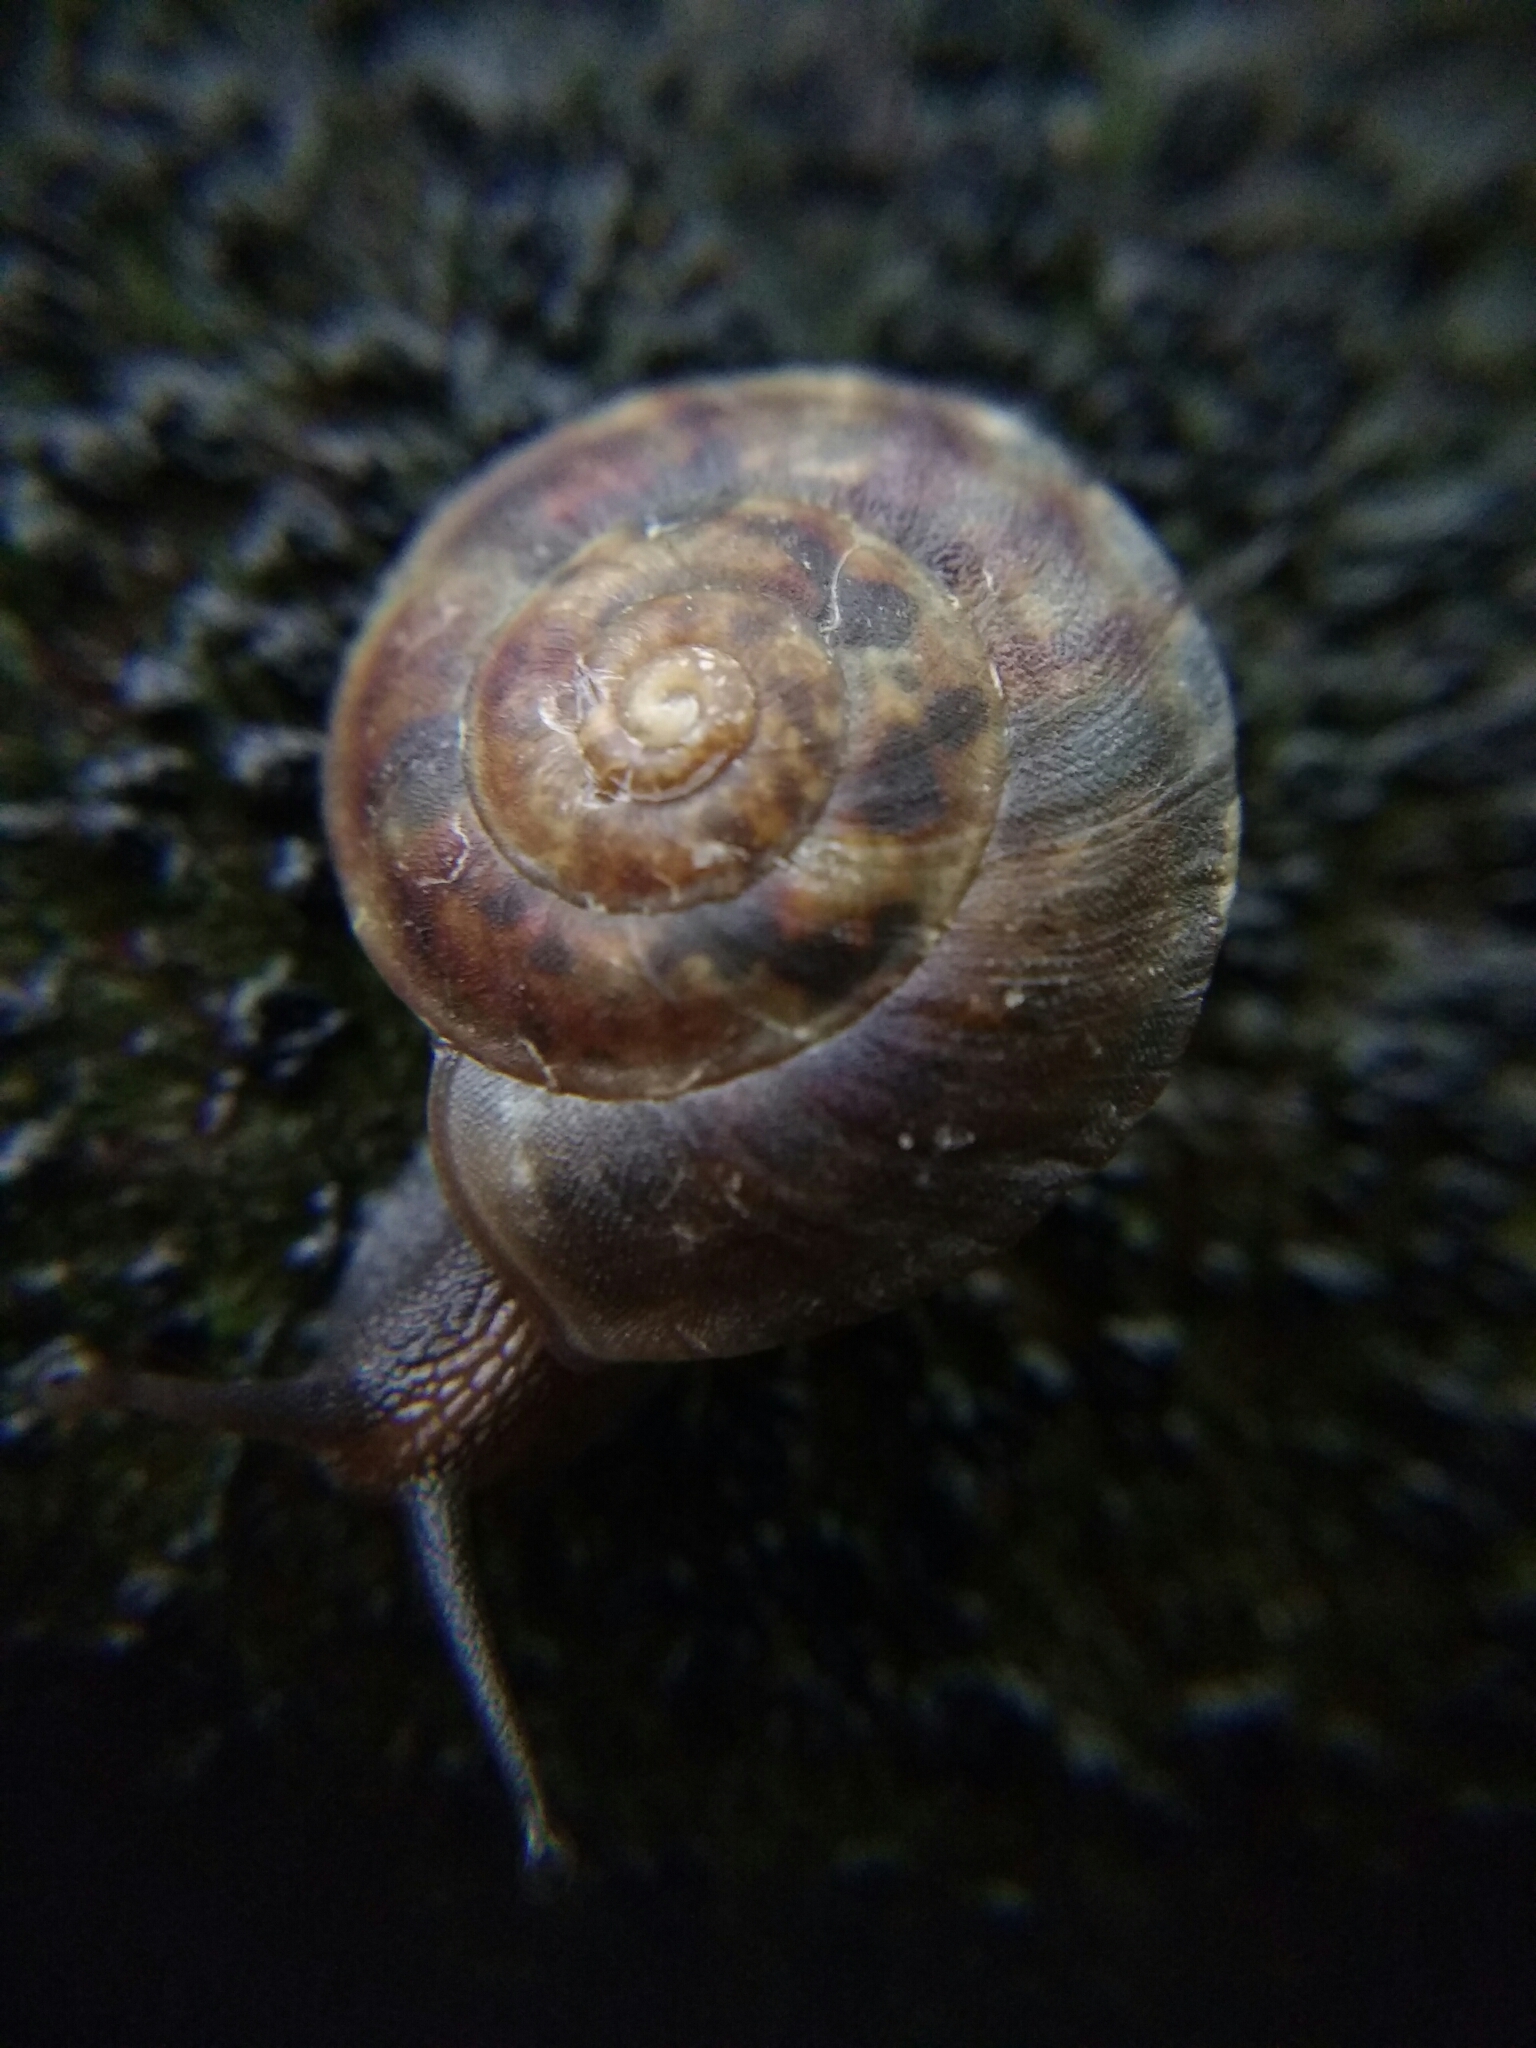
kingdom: Animalia
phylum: Mollusca
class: Gastropoda
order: Stylommatophora
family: Helicidae
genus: Helicigona
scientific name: Helicigona lapicida
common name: Lapidary snail
